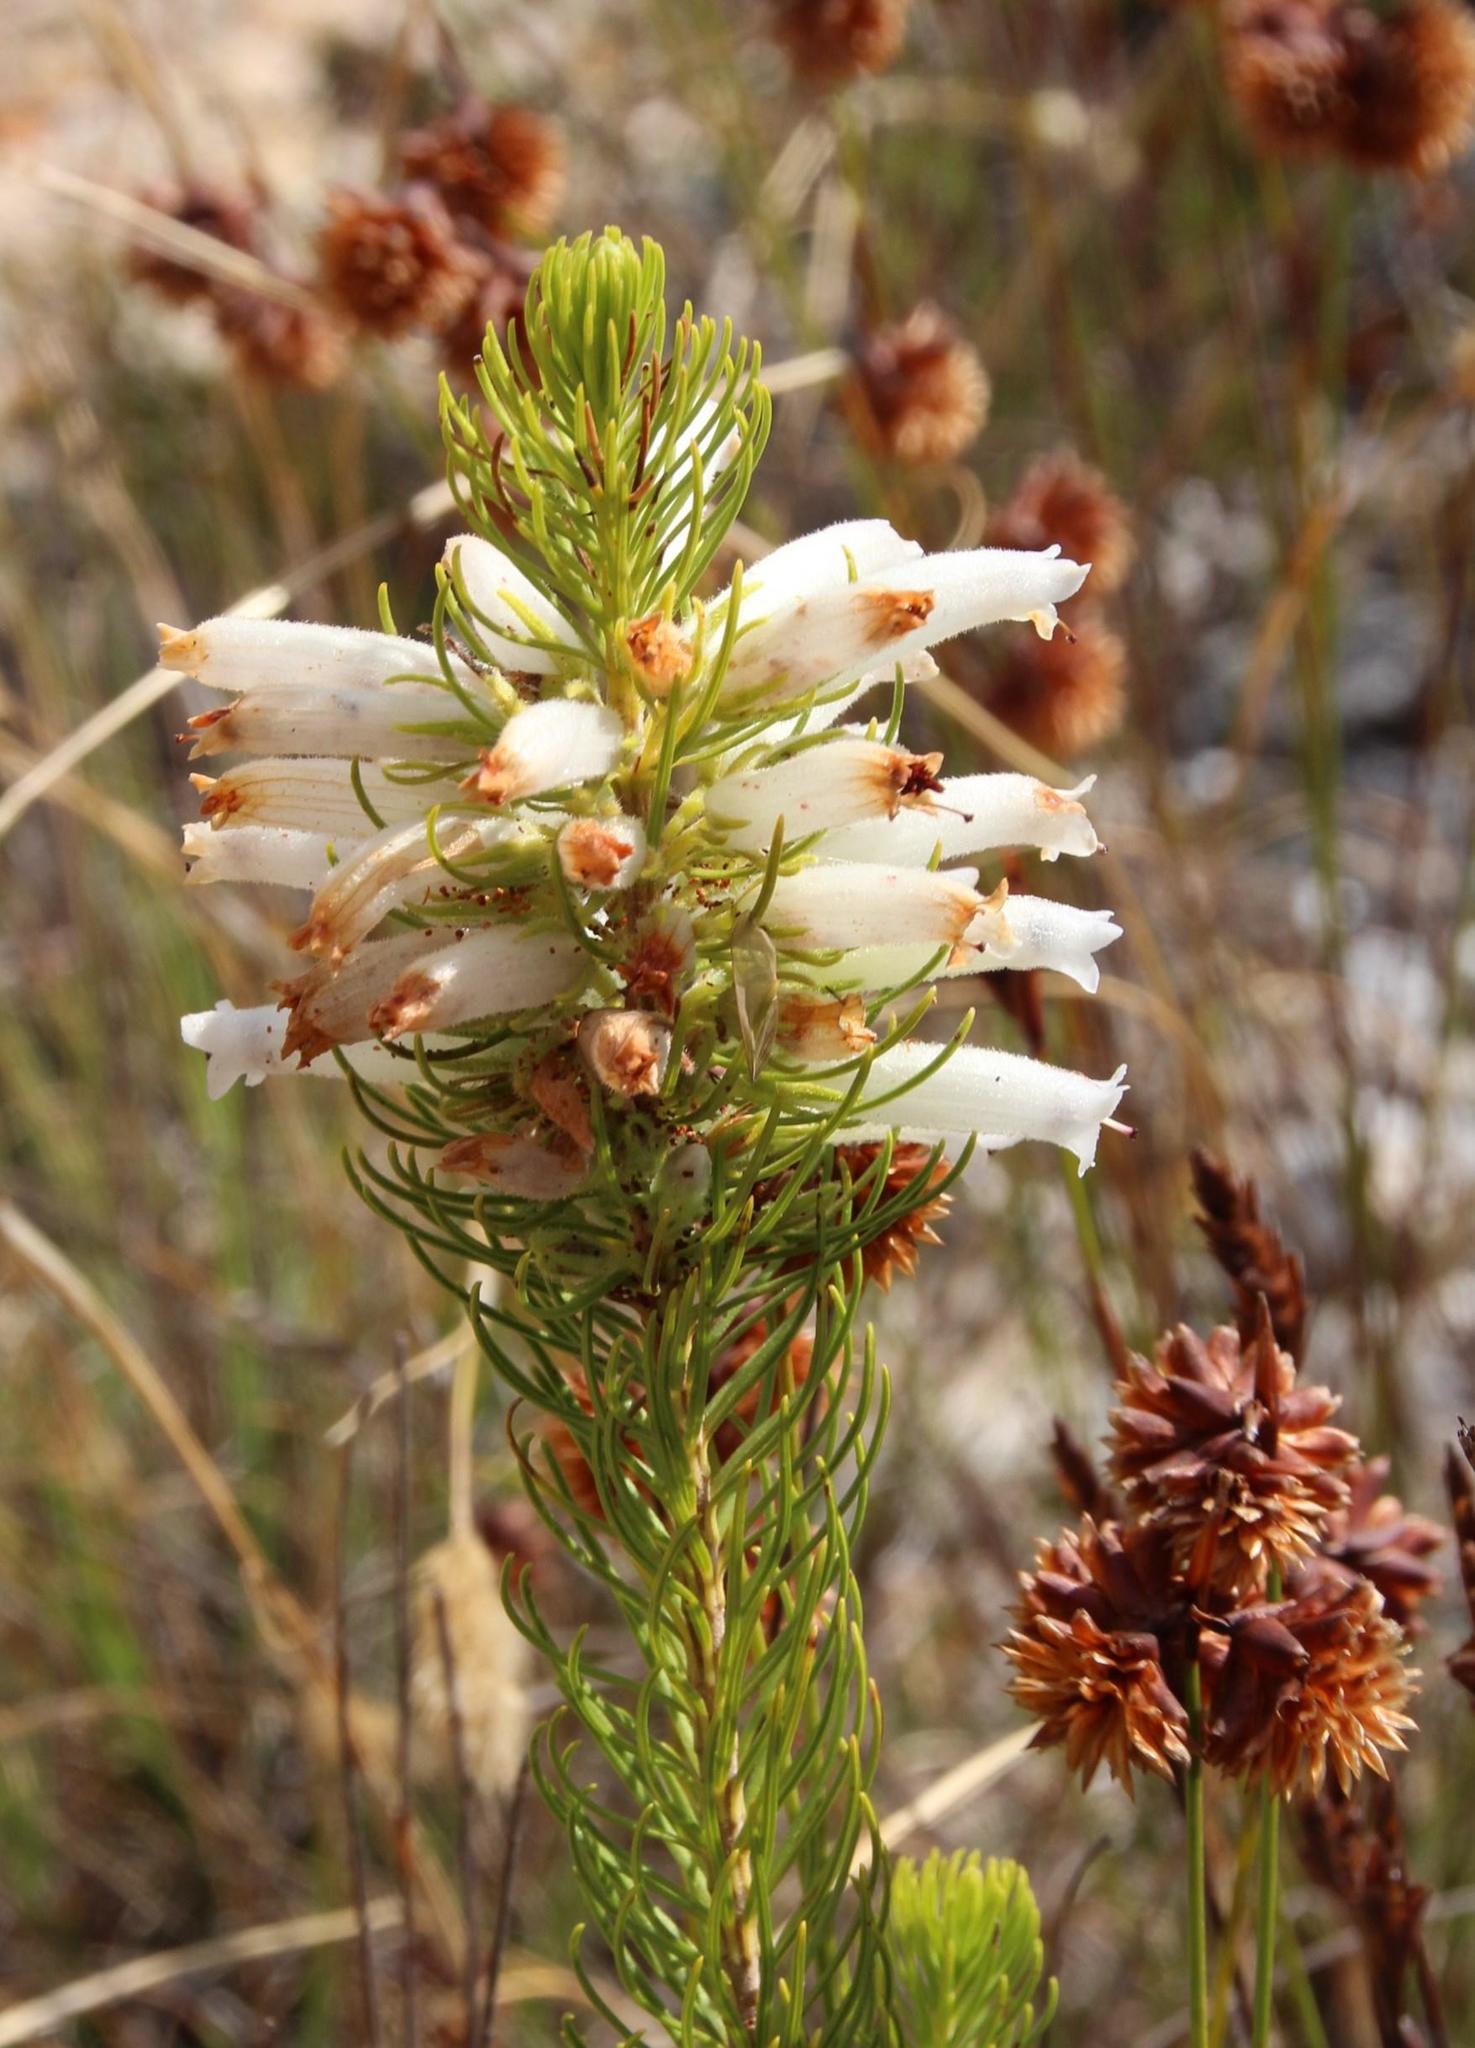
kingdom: Plantae
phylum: Tracheophyta
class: Magnoliopsida
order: Ericales
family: Ericaceae
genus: Erica
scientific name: Erica viscaria
